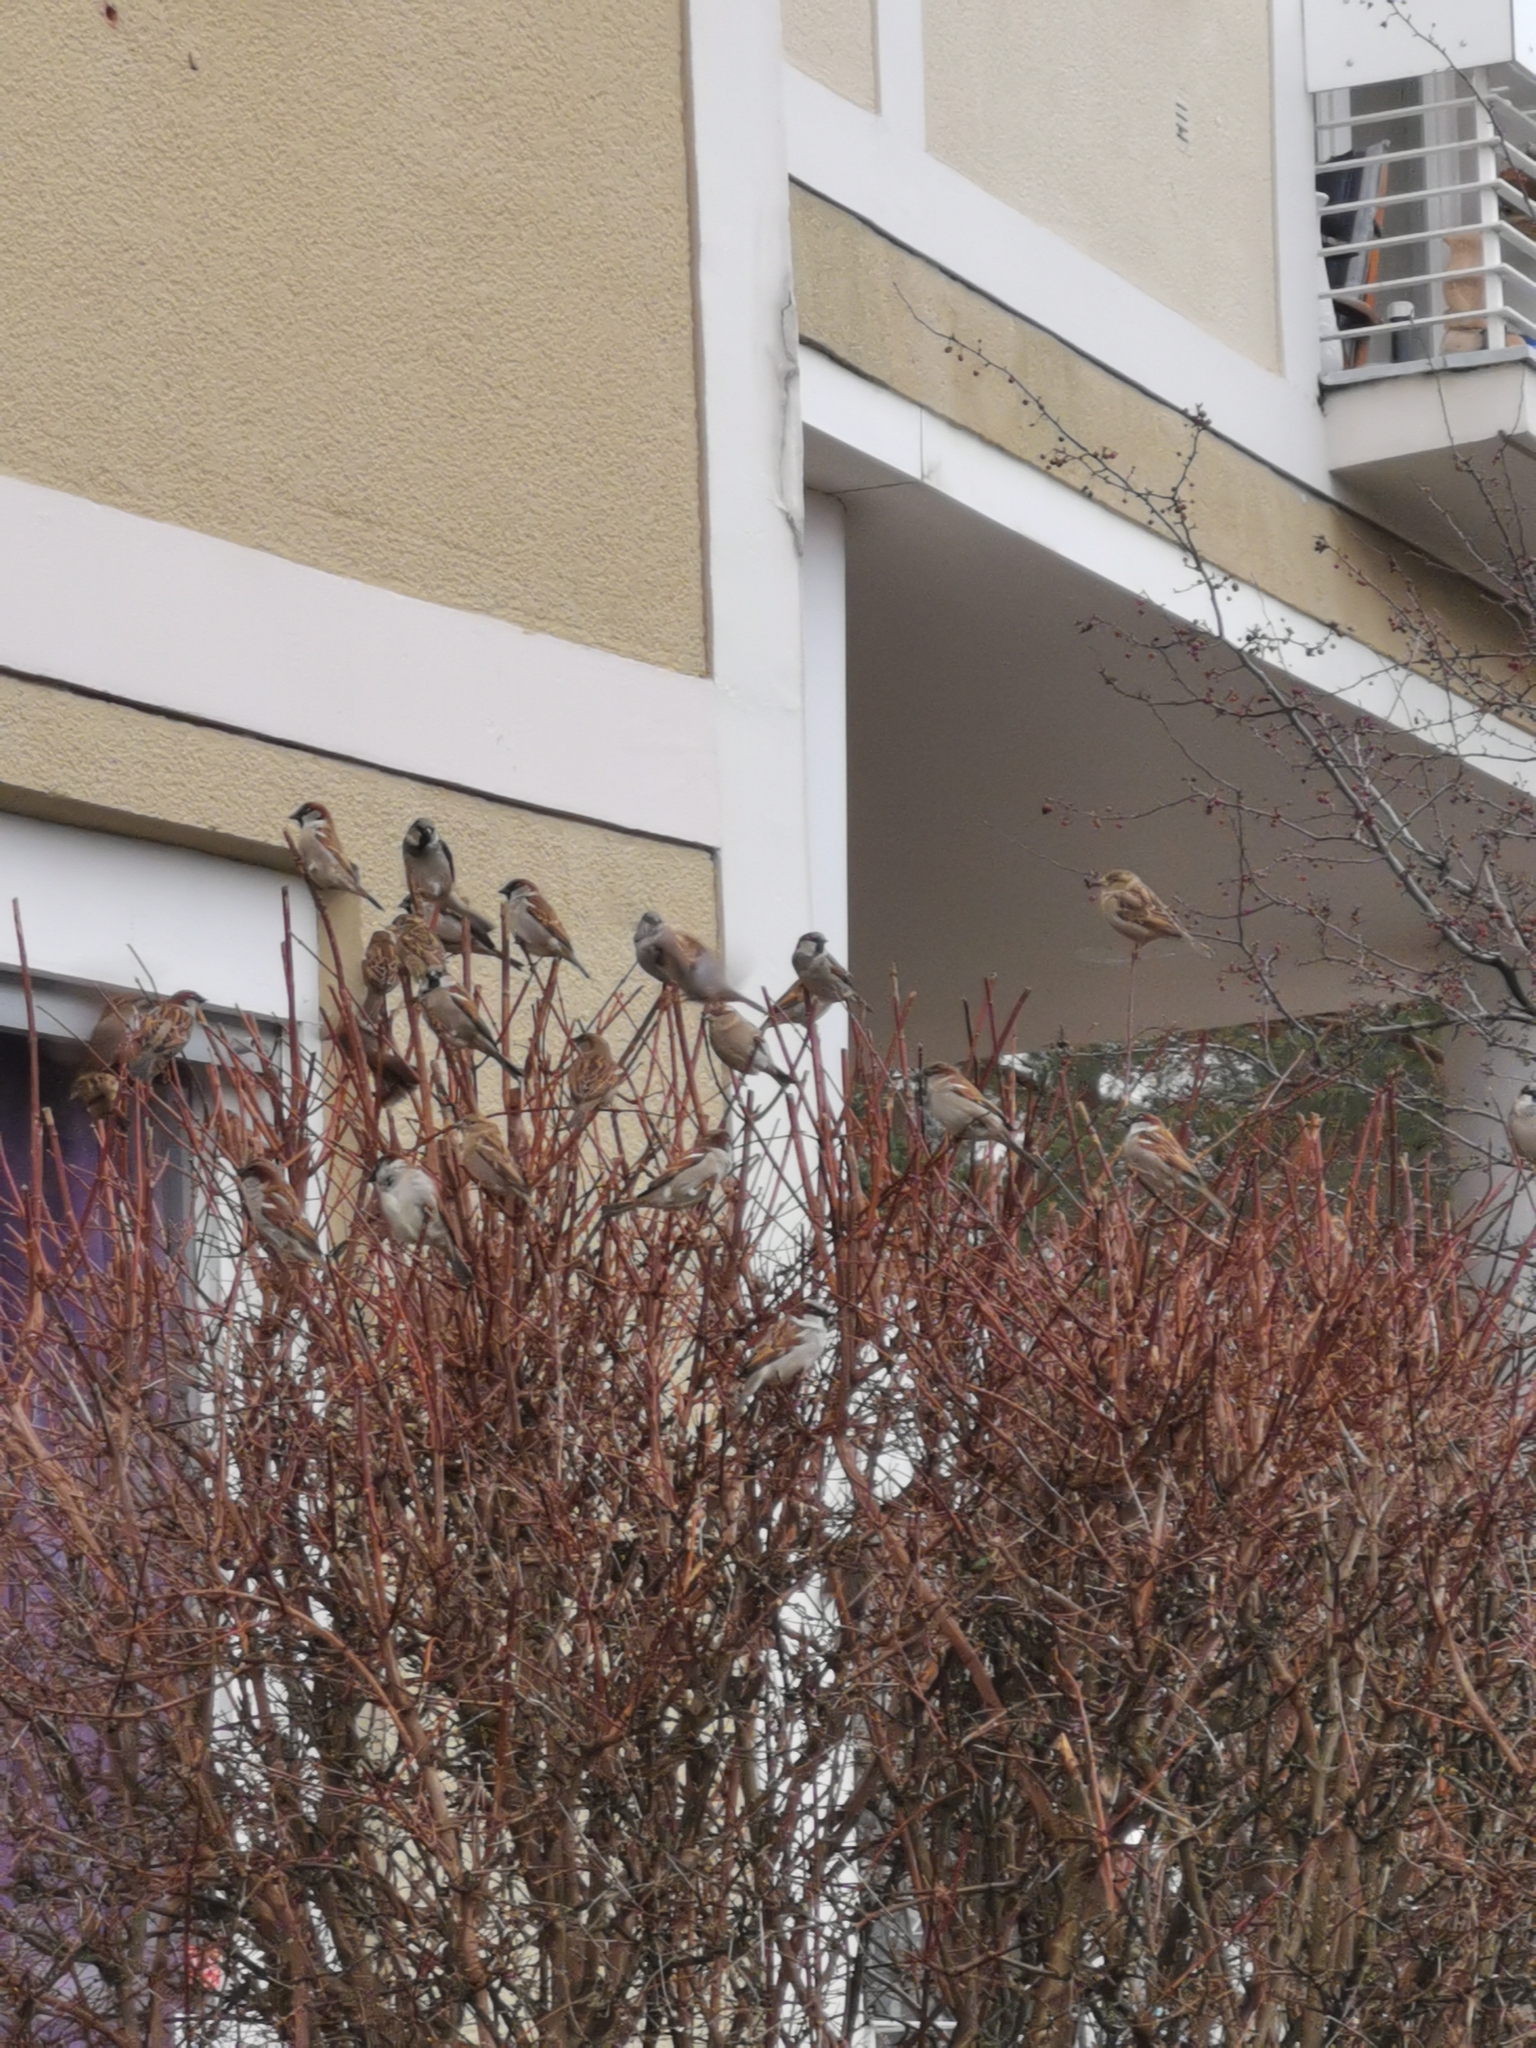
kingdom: Animalia
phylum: Chordata
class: Aves
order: Passeriformes
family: Passeridae
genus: Passer
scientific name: Passer domesticus
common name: House sparrow
